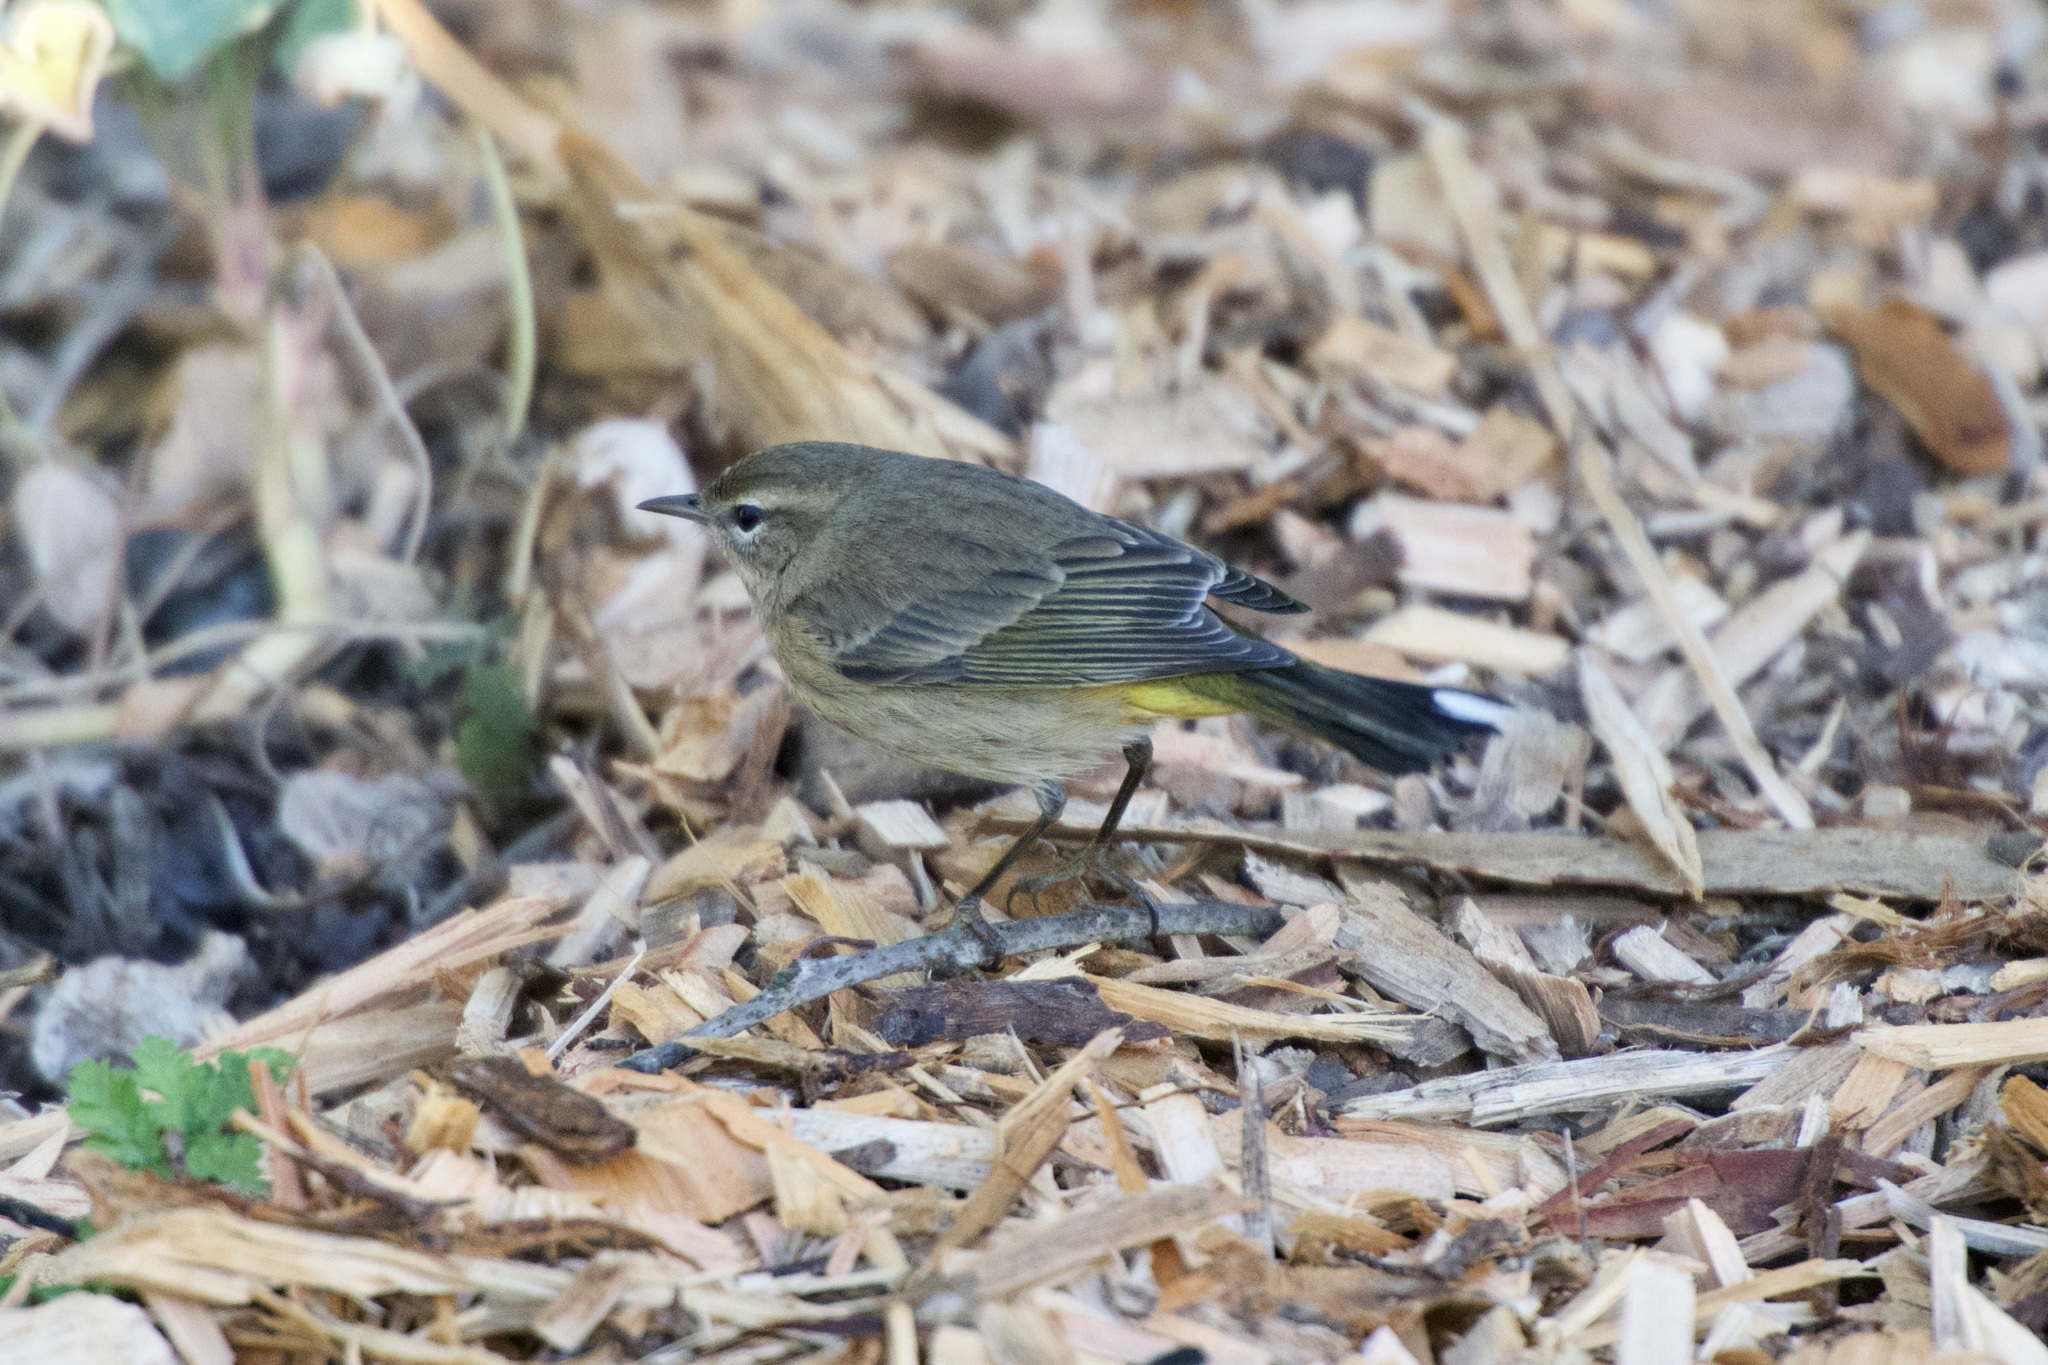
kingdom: Animalia
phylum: Chordata
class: Aves
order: Passeriformes
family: Parulidae
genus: Setophaga
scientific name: Setophaga palmarum
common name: Palm warbler
